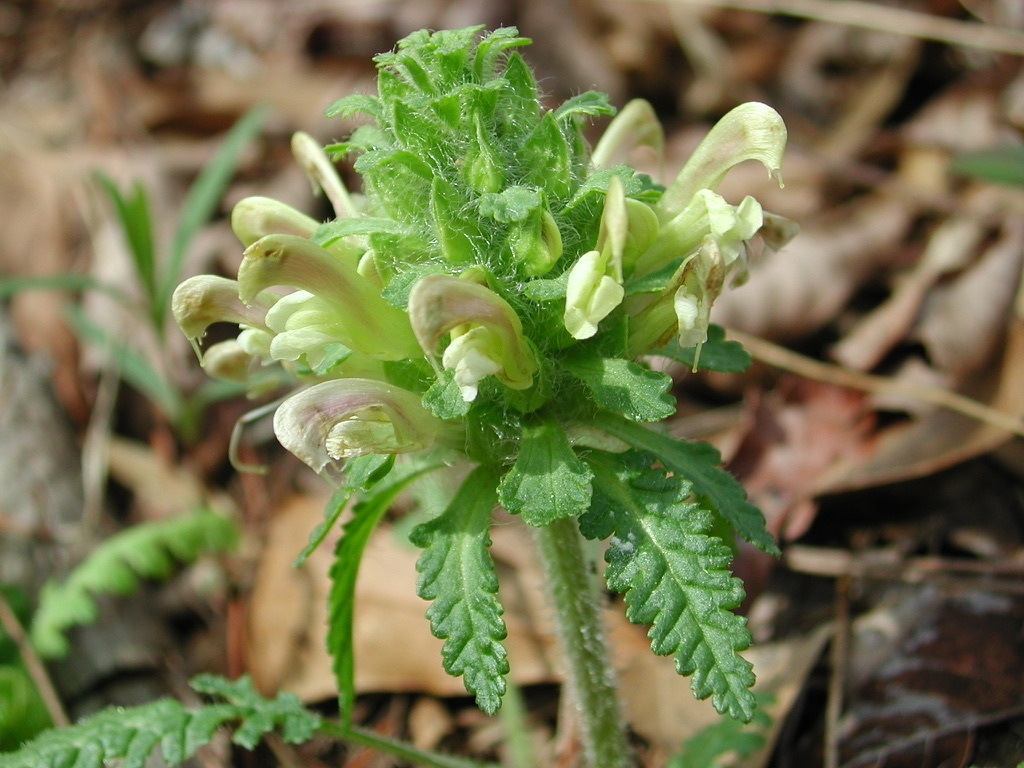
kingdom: Plantae
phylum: Tracheophyta
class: Magnoliopsida
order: Lamiales
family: Orobanchaceae
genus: Pedicularis
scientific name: Pedicularis canadensis
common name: Early lousewort
